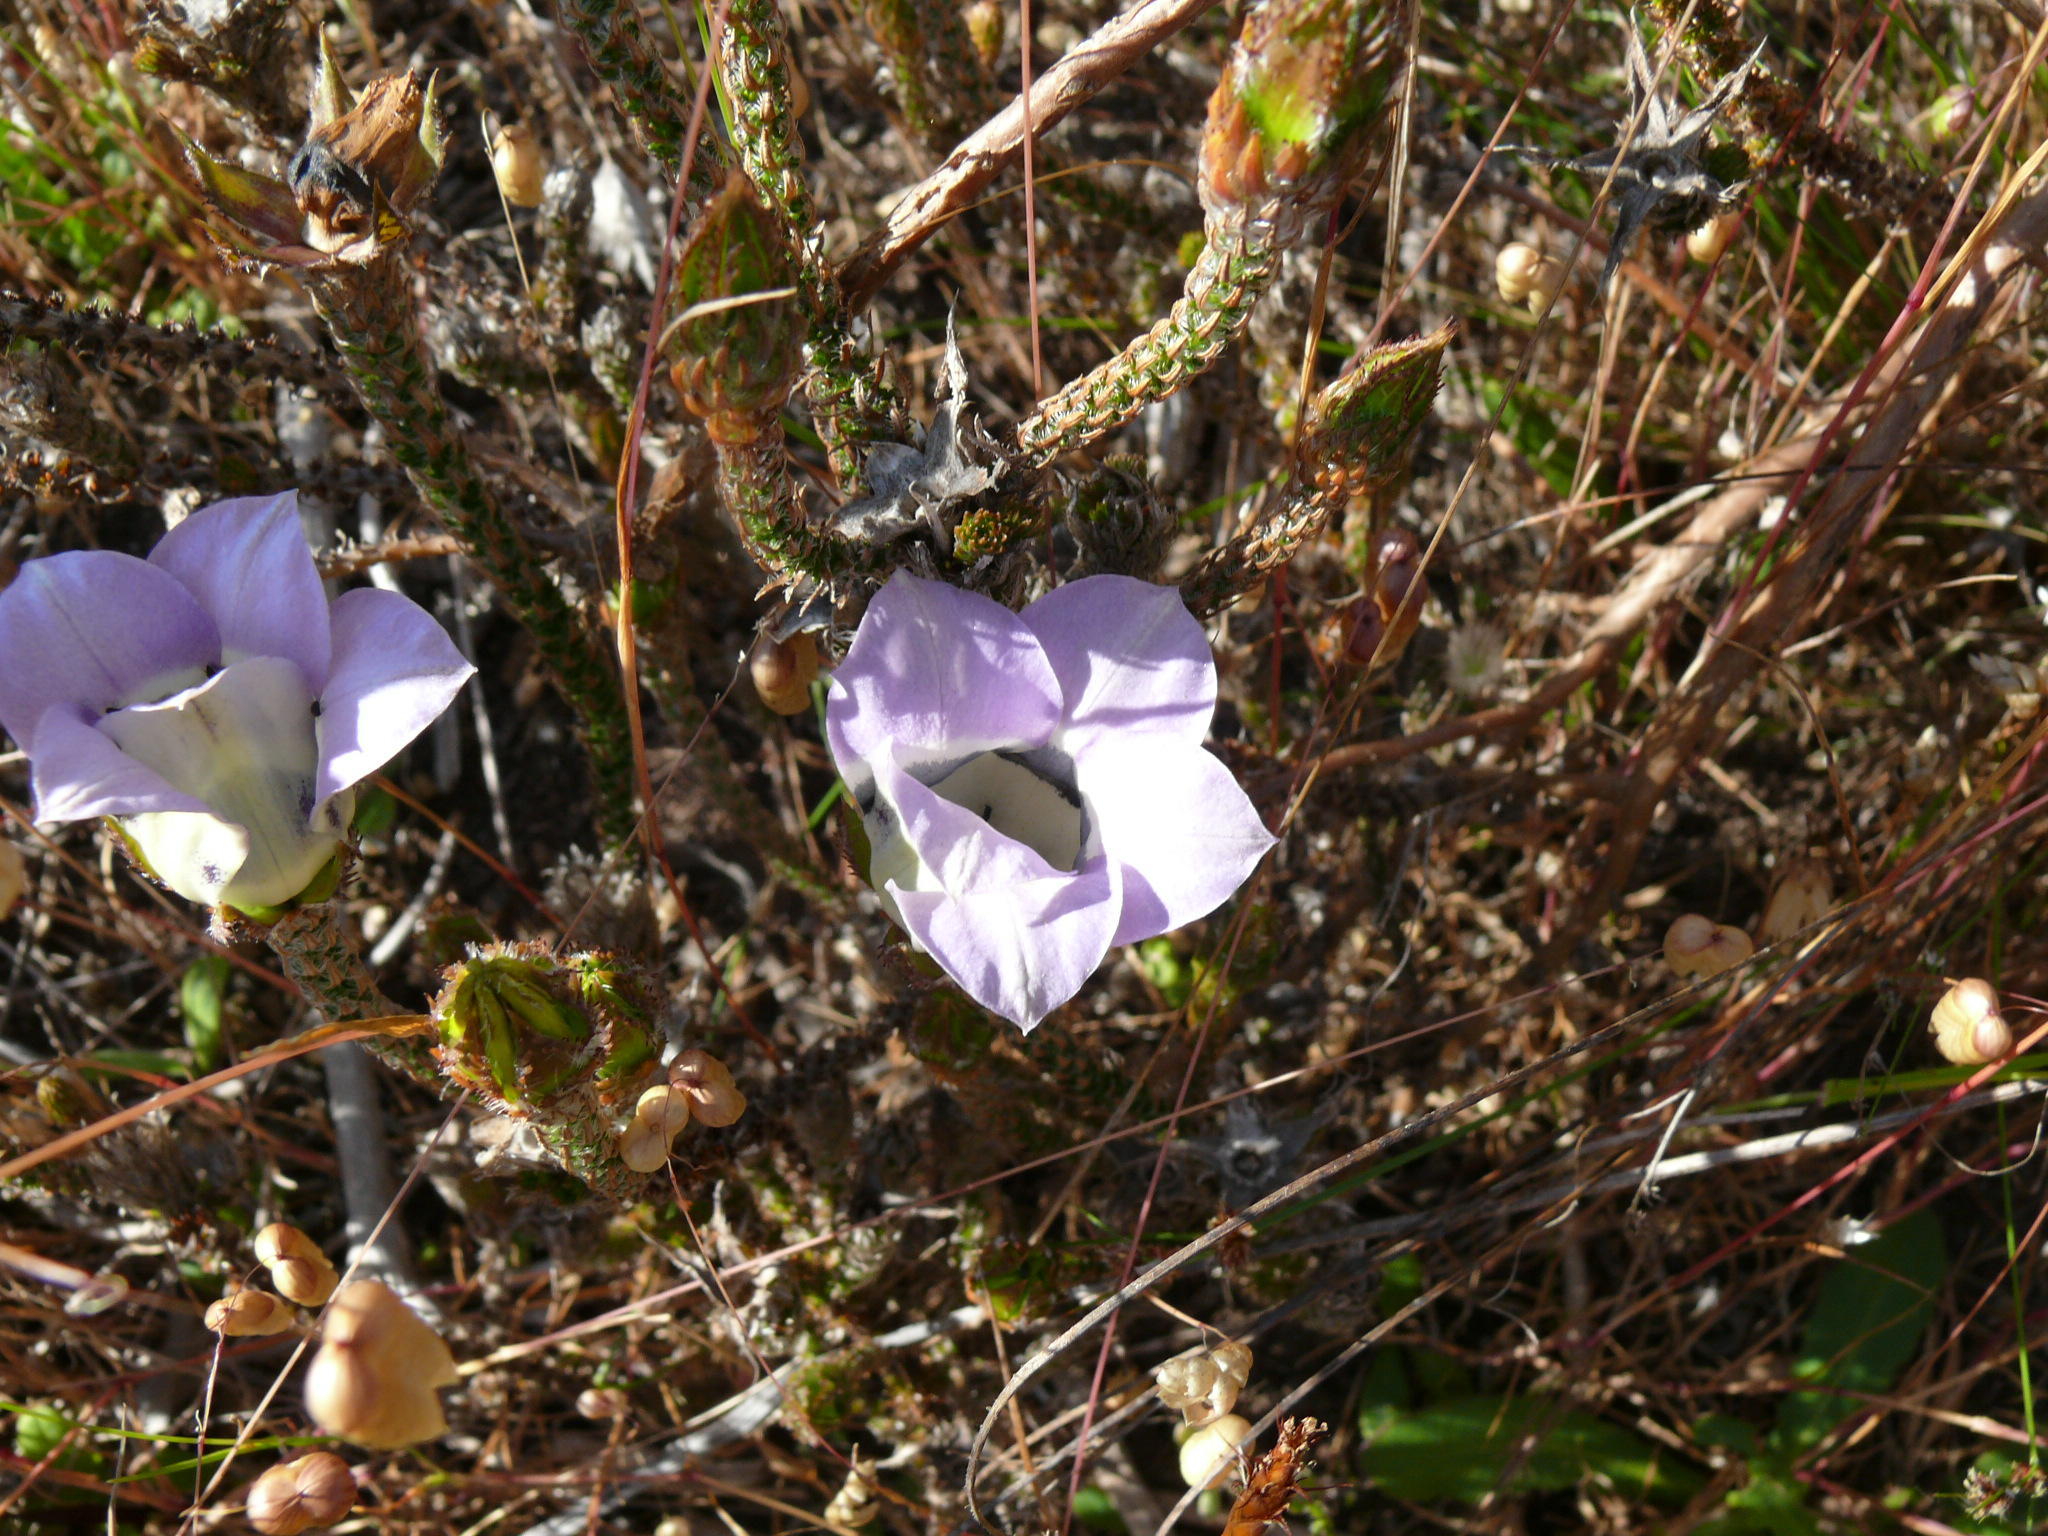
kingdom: Plantae
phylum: Tracheophyta
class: Magnoliopsida
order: Asterales
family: Campanulaceae
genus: Roella
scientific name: Roella ciliata
